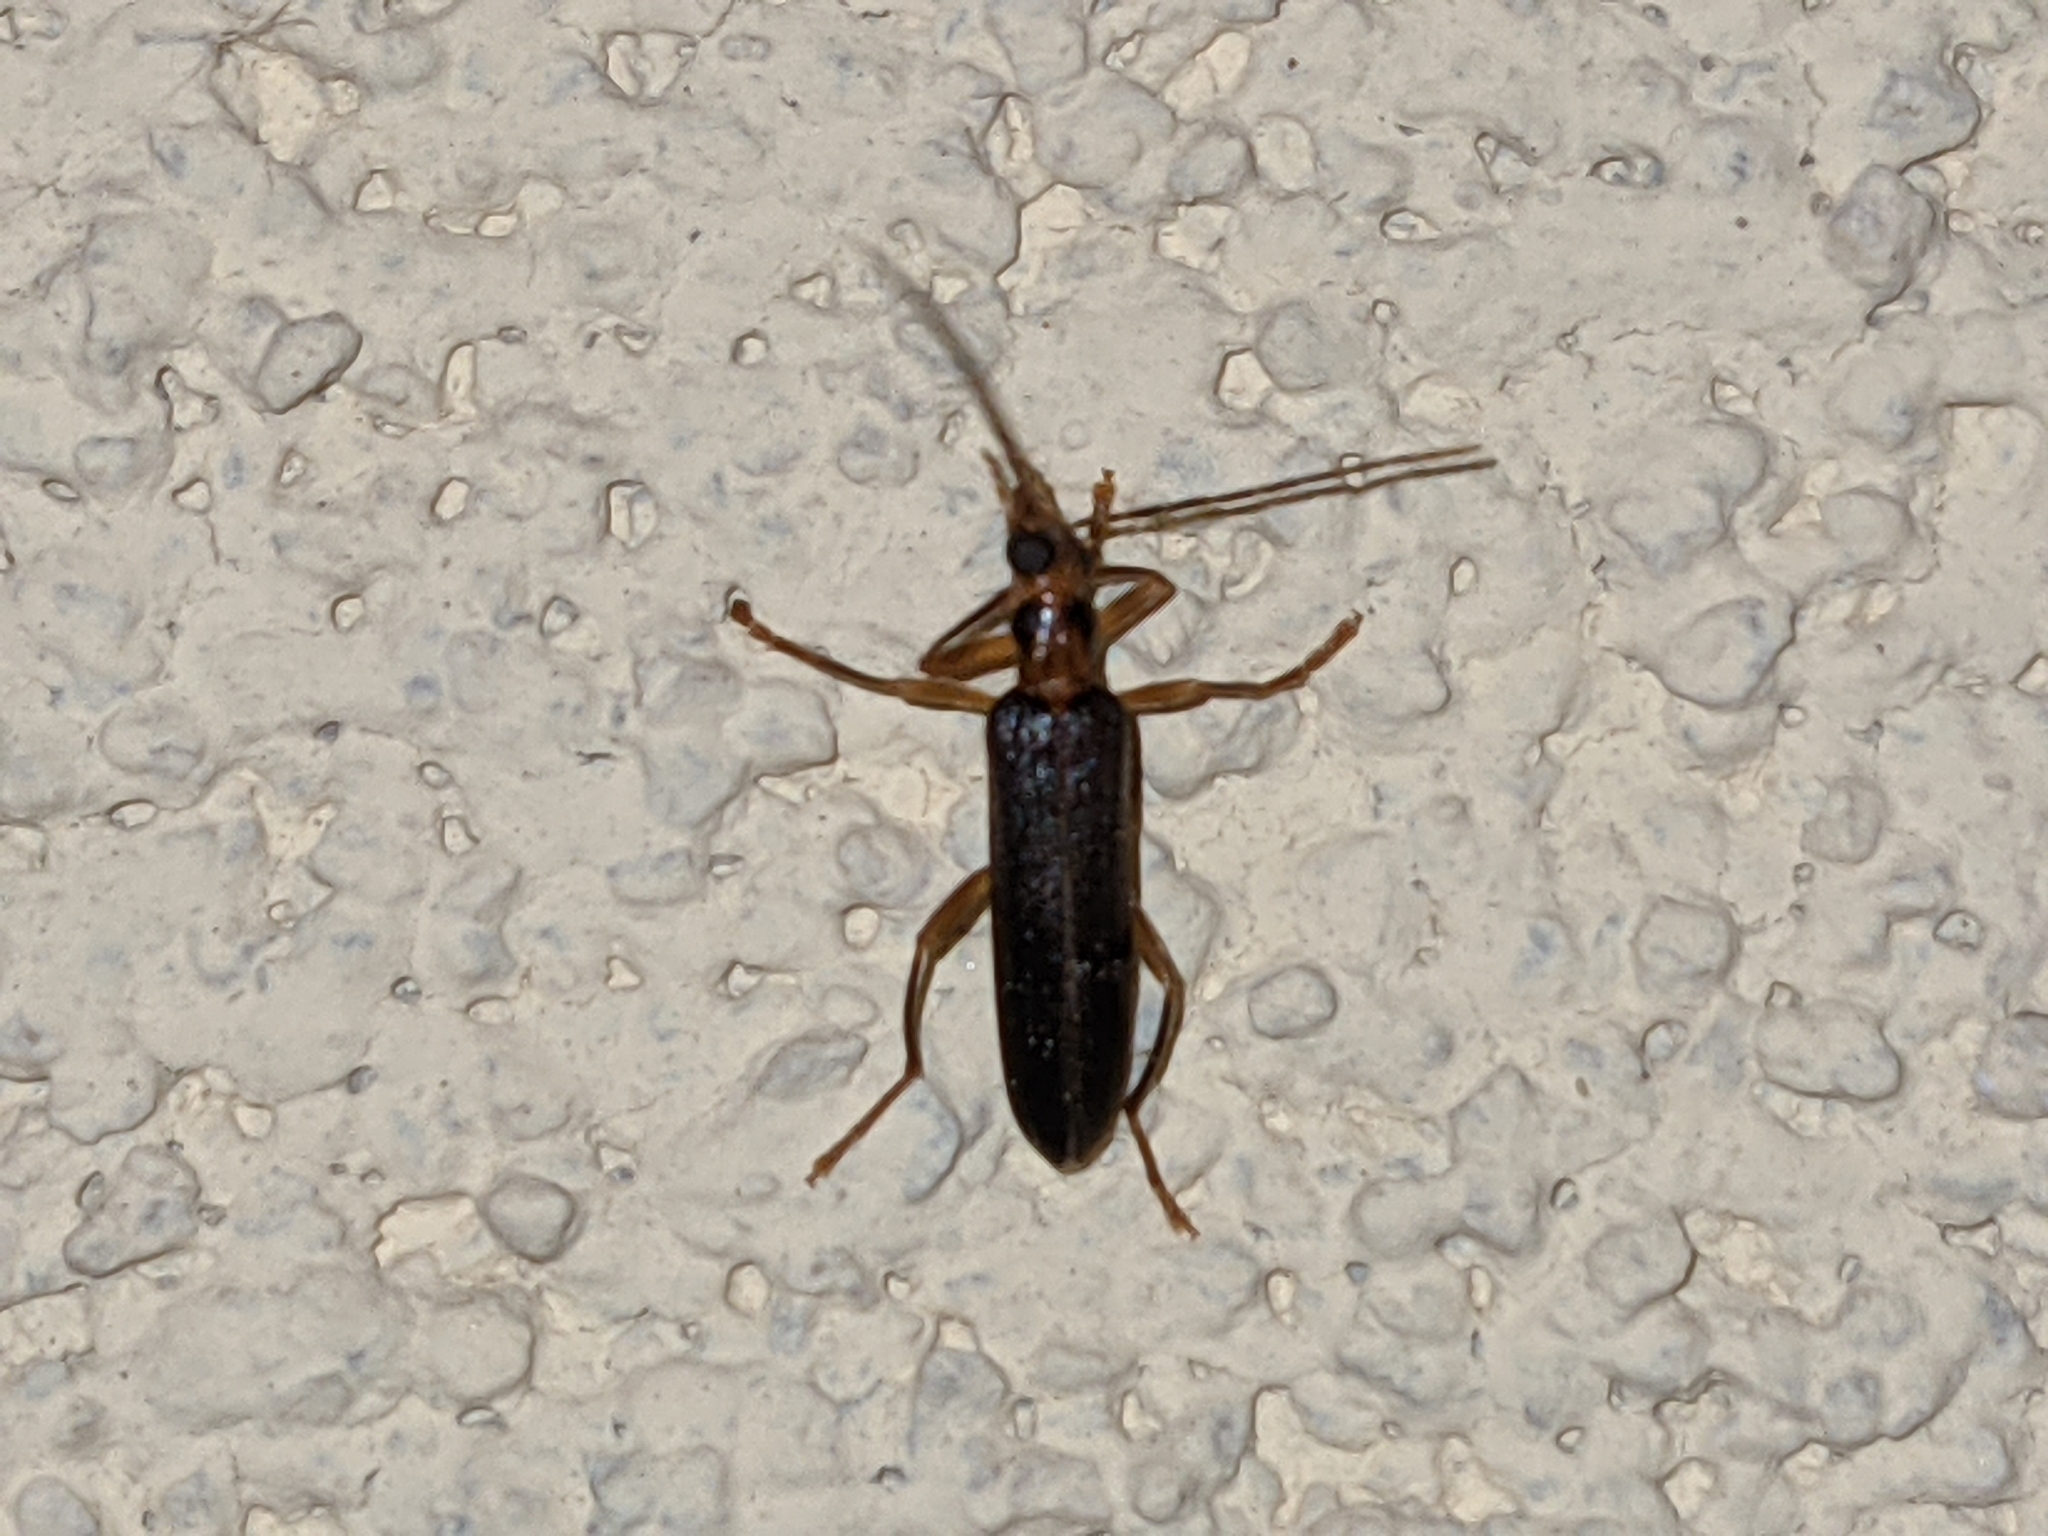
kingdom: Animalia
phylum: Arthropoda
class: Insecta
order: Coleoptera
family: Oedemeridae
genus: Nacerdes
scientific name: Nacerdes carniolica
